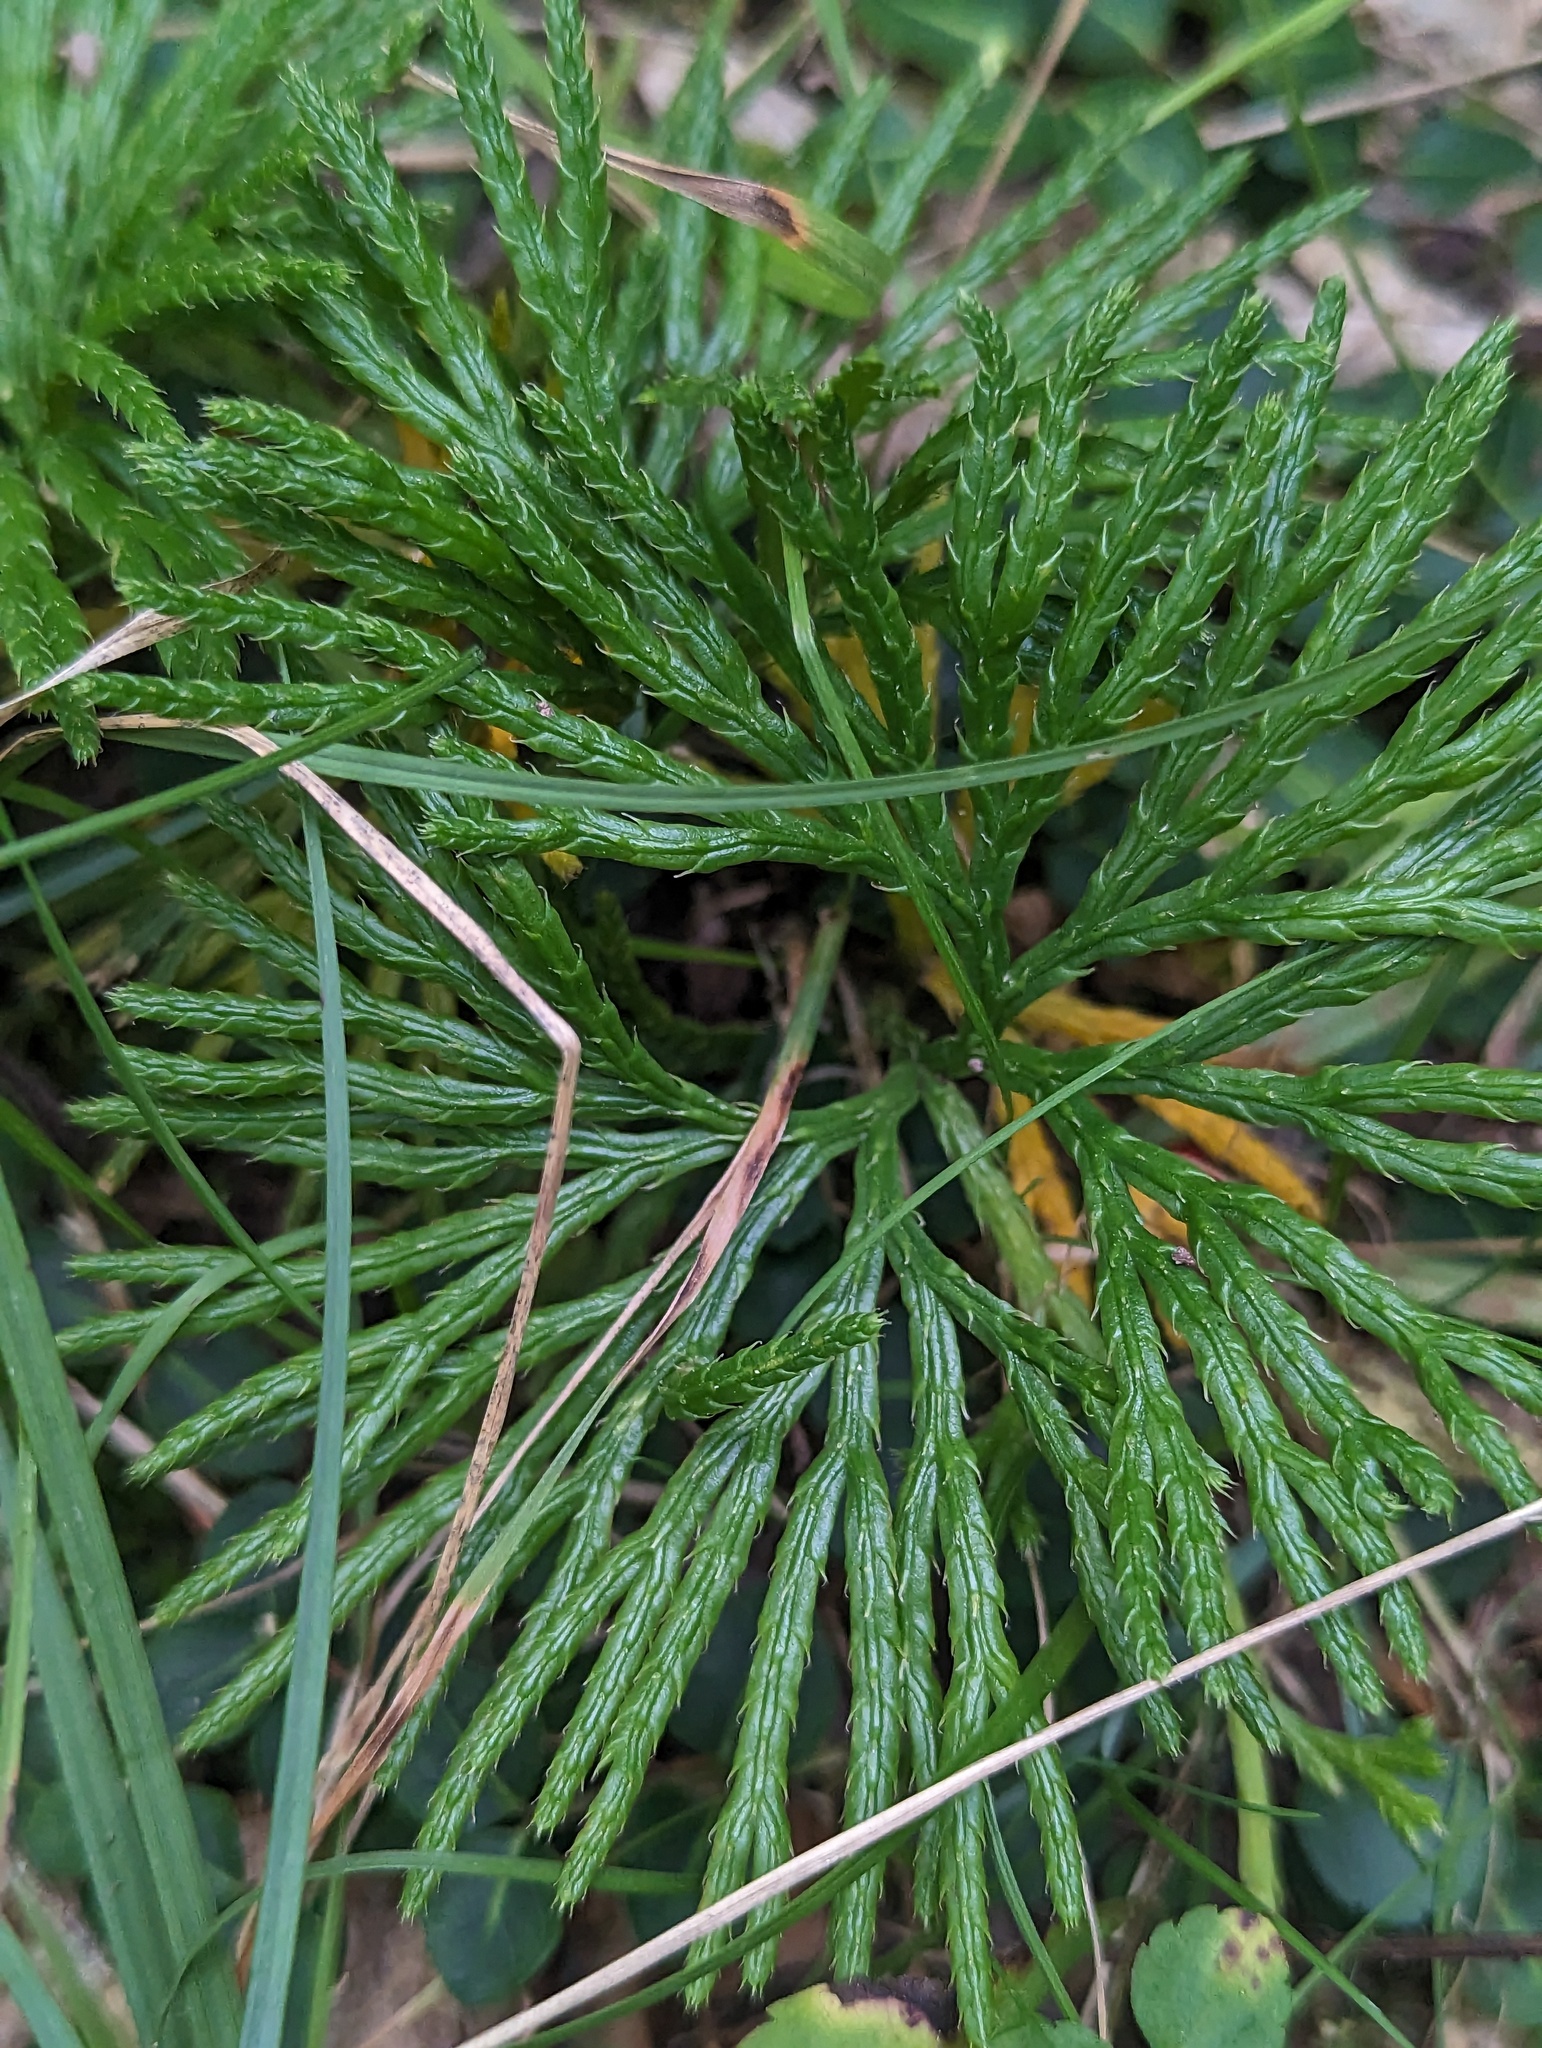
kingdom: Plantae
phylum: Tracheophyta
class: Lycopodiopsida
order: Lycopodiales
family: Lycopodiaceae
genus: Diphasiastrum
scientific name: Diphasiastrum digitatum
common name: Southern running-pine
